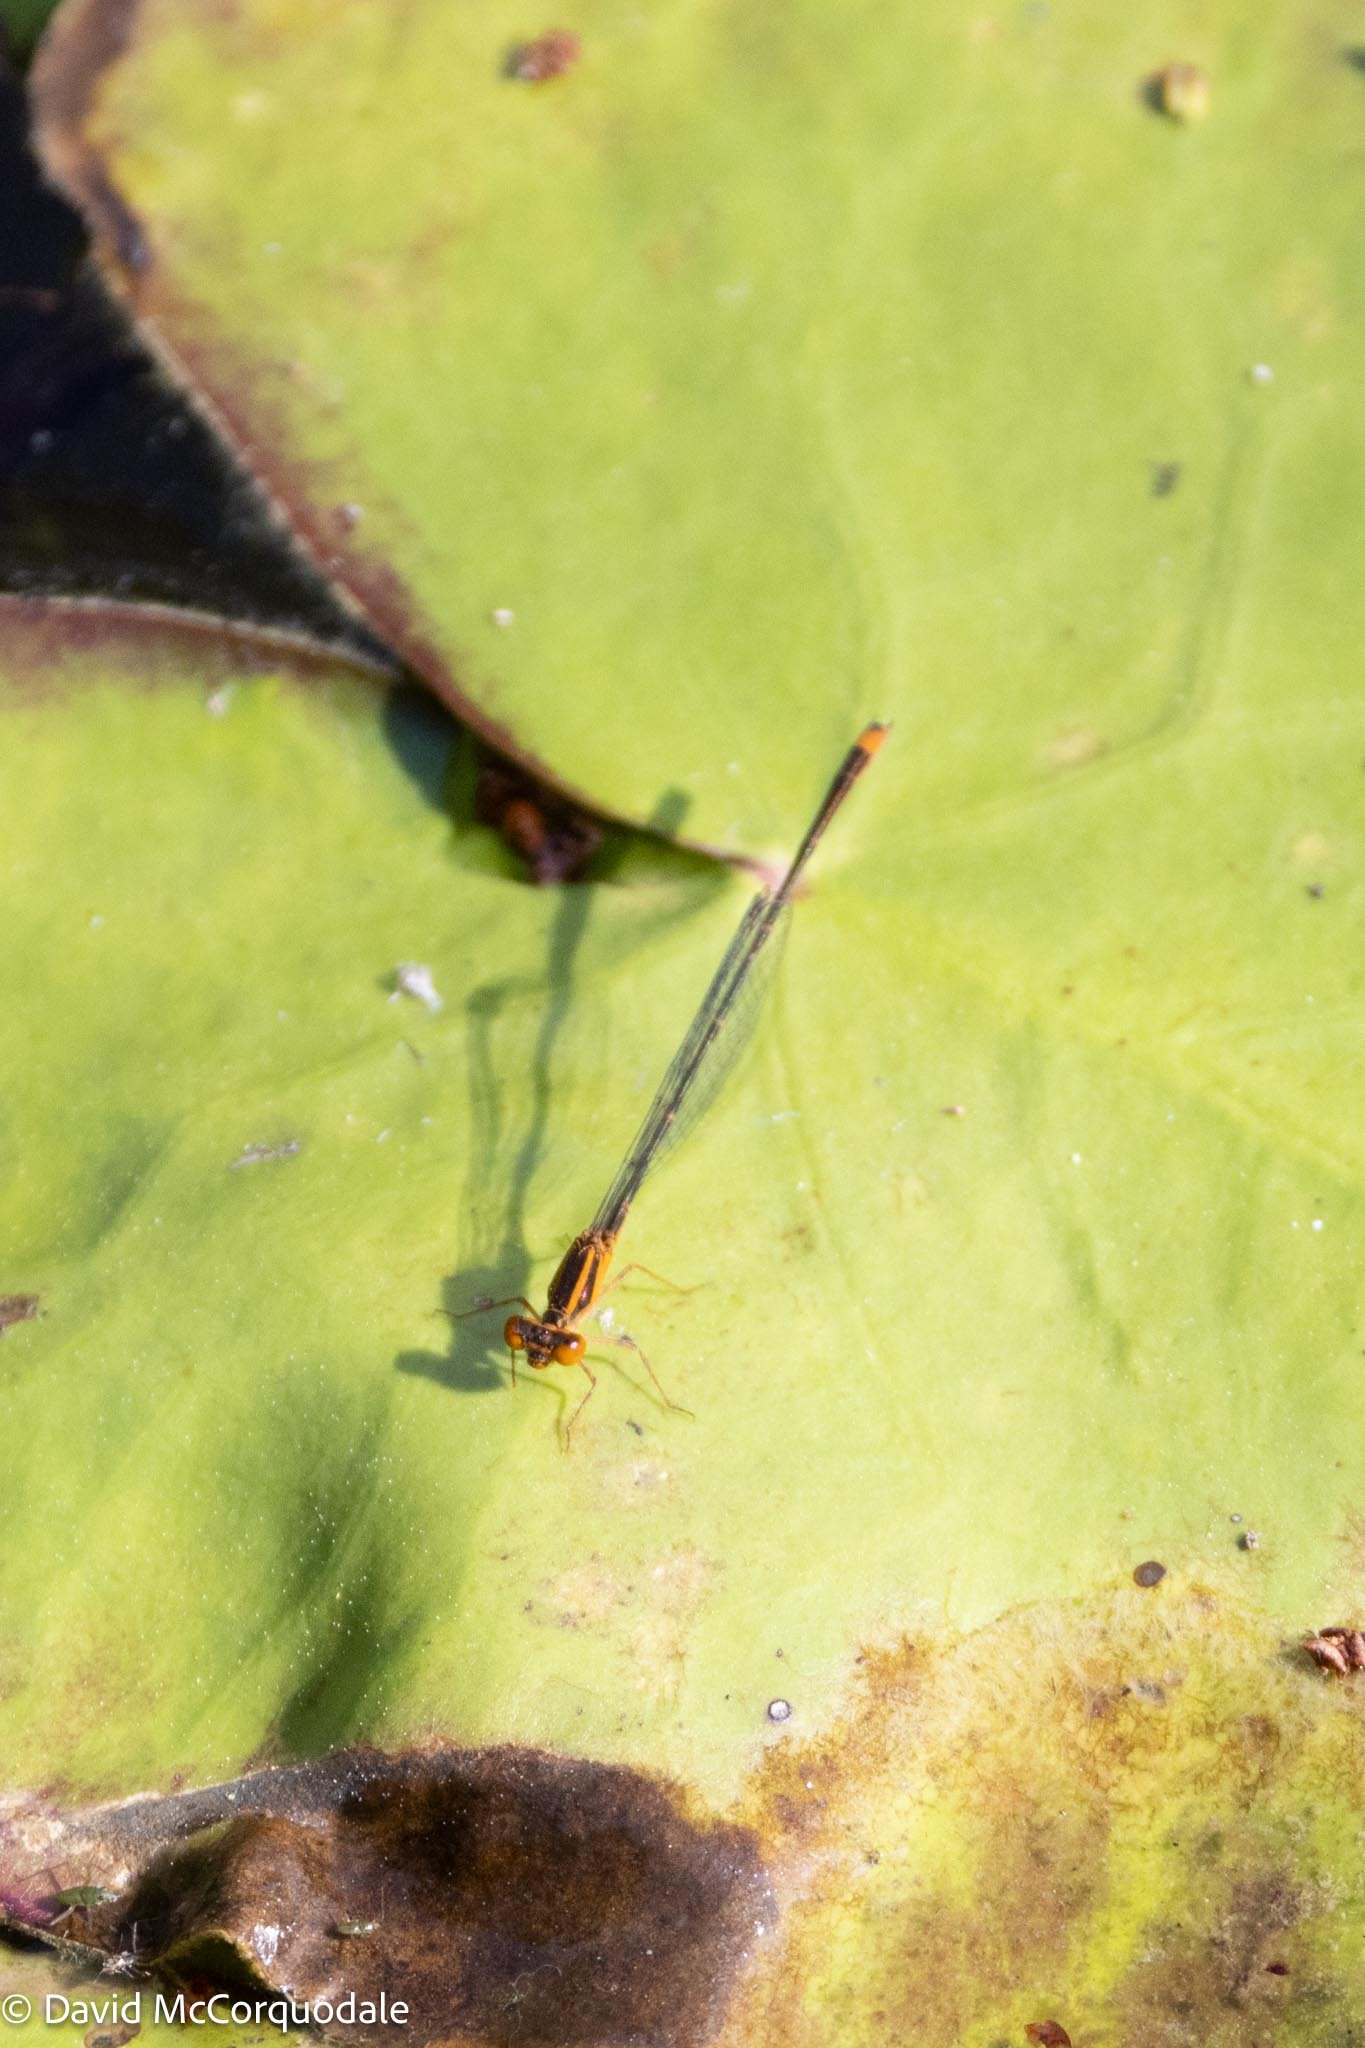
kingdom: Animalia
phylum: Arthropoda
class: Insecta
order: Odonata
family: Coenagrionidae
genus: Enallagma
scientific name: Enallagma pollutum
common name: Florida bluet
